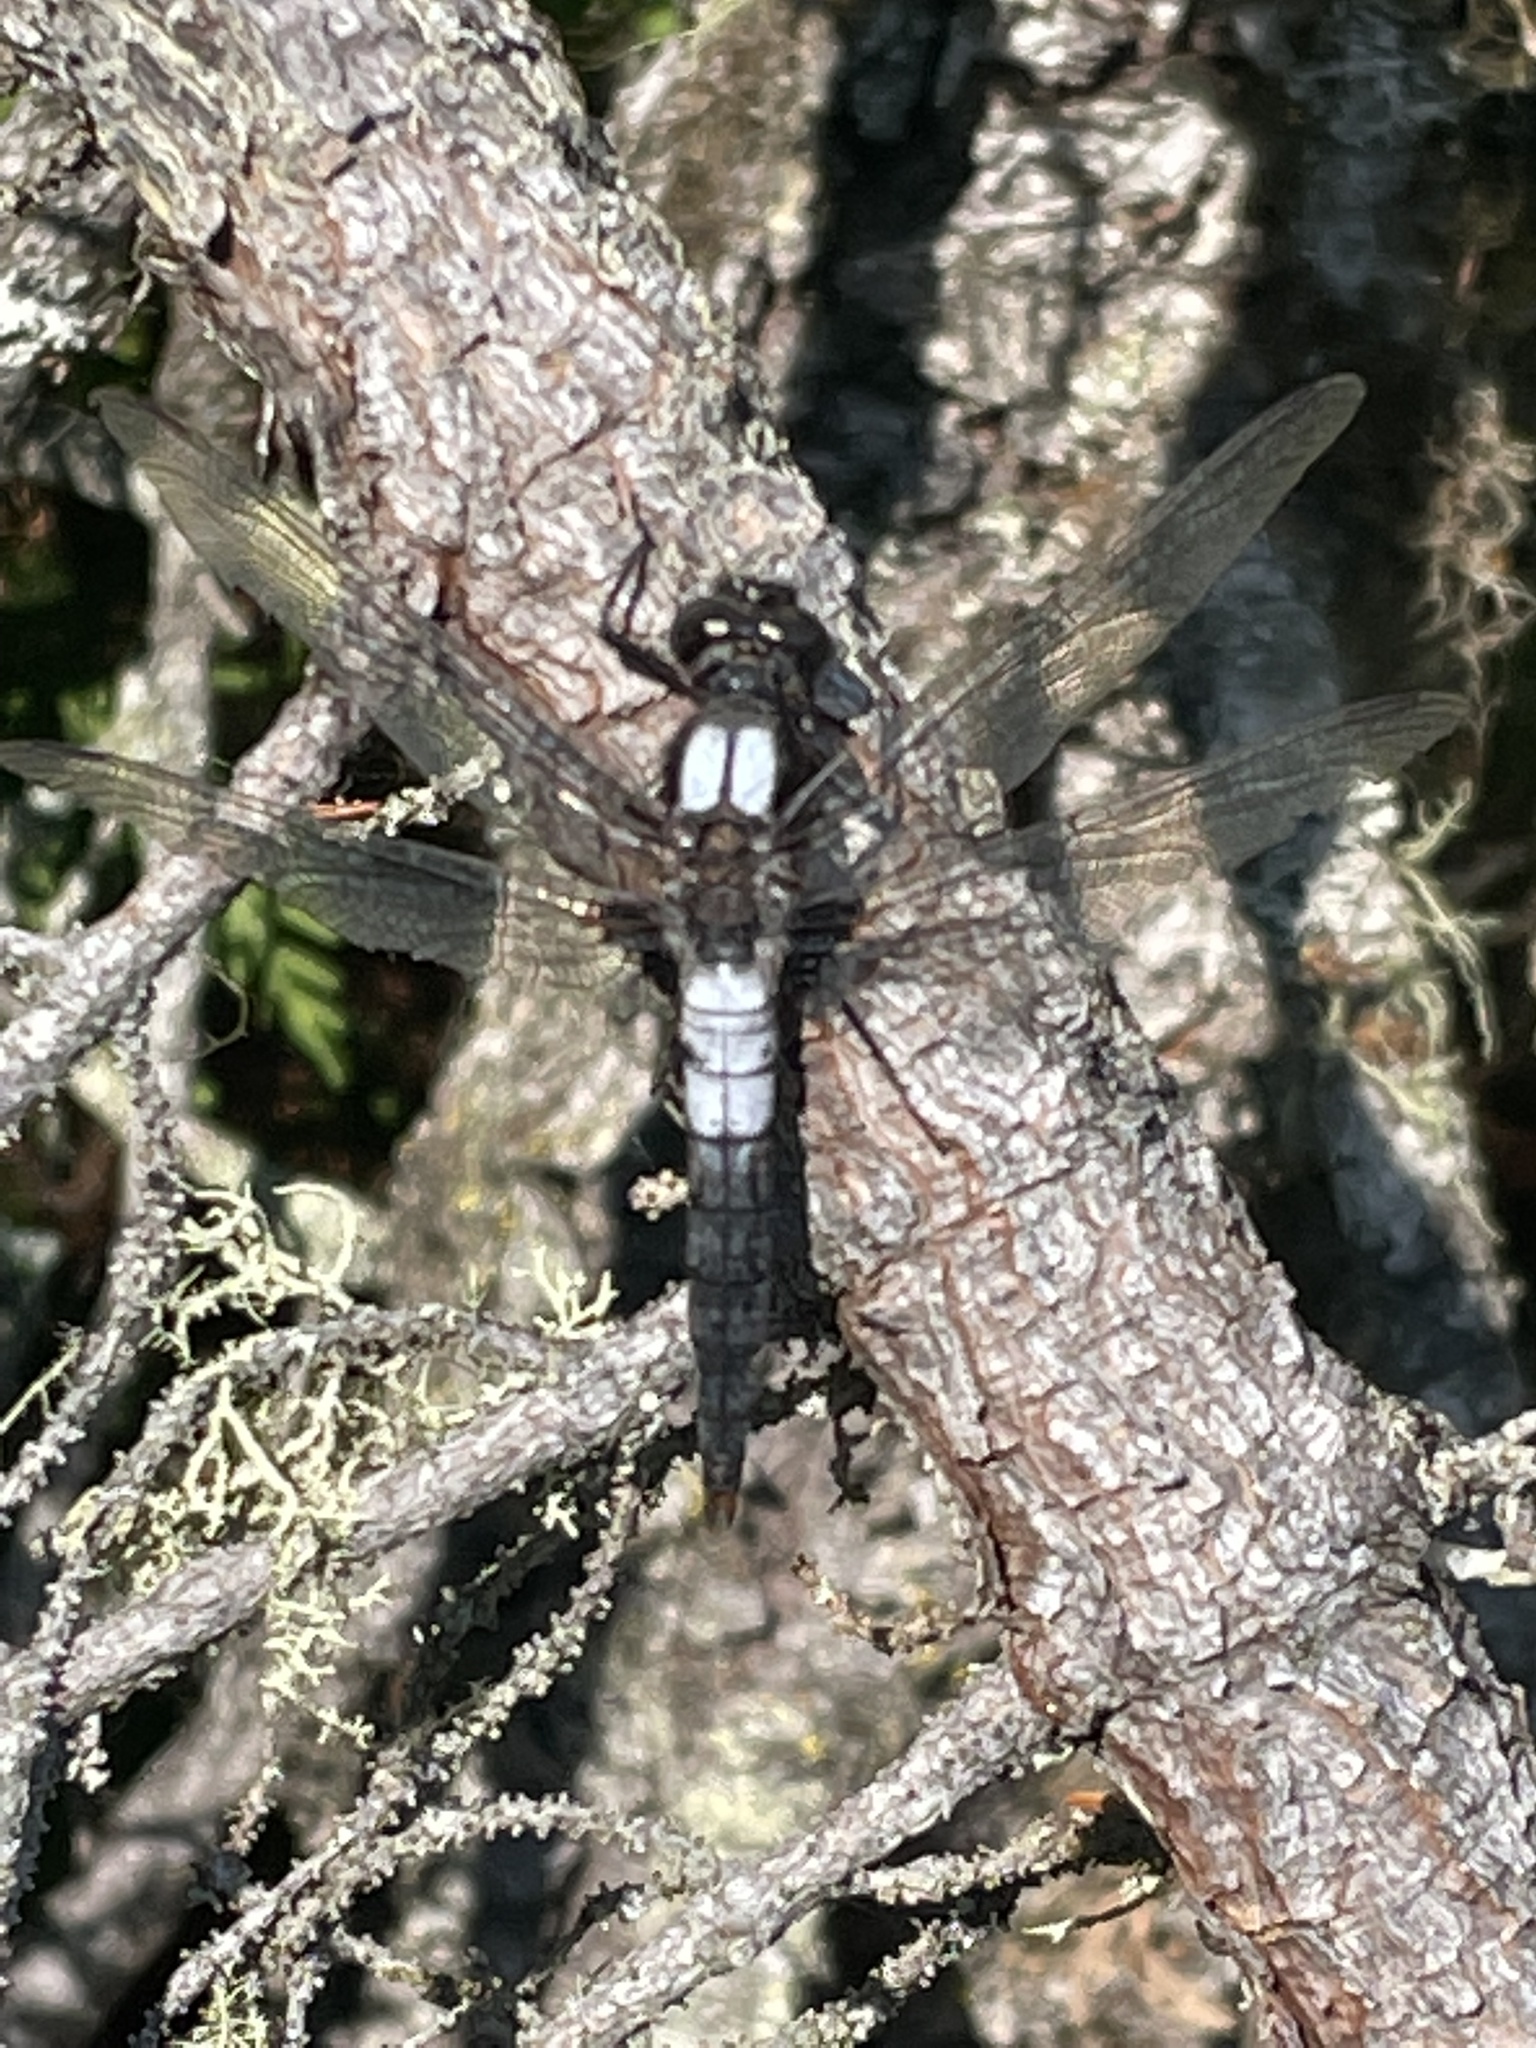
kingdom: Animalia
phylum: Arthropoda
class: Insecta
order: Odonata
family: Libellulidae
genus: Ladona
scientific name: Ladona julia
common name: Chalk-fronted corporal
